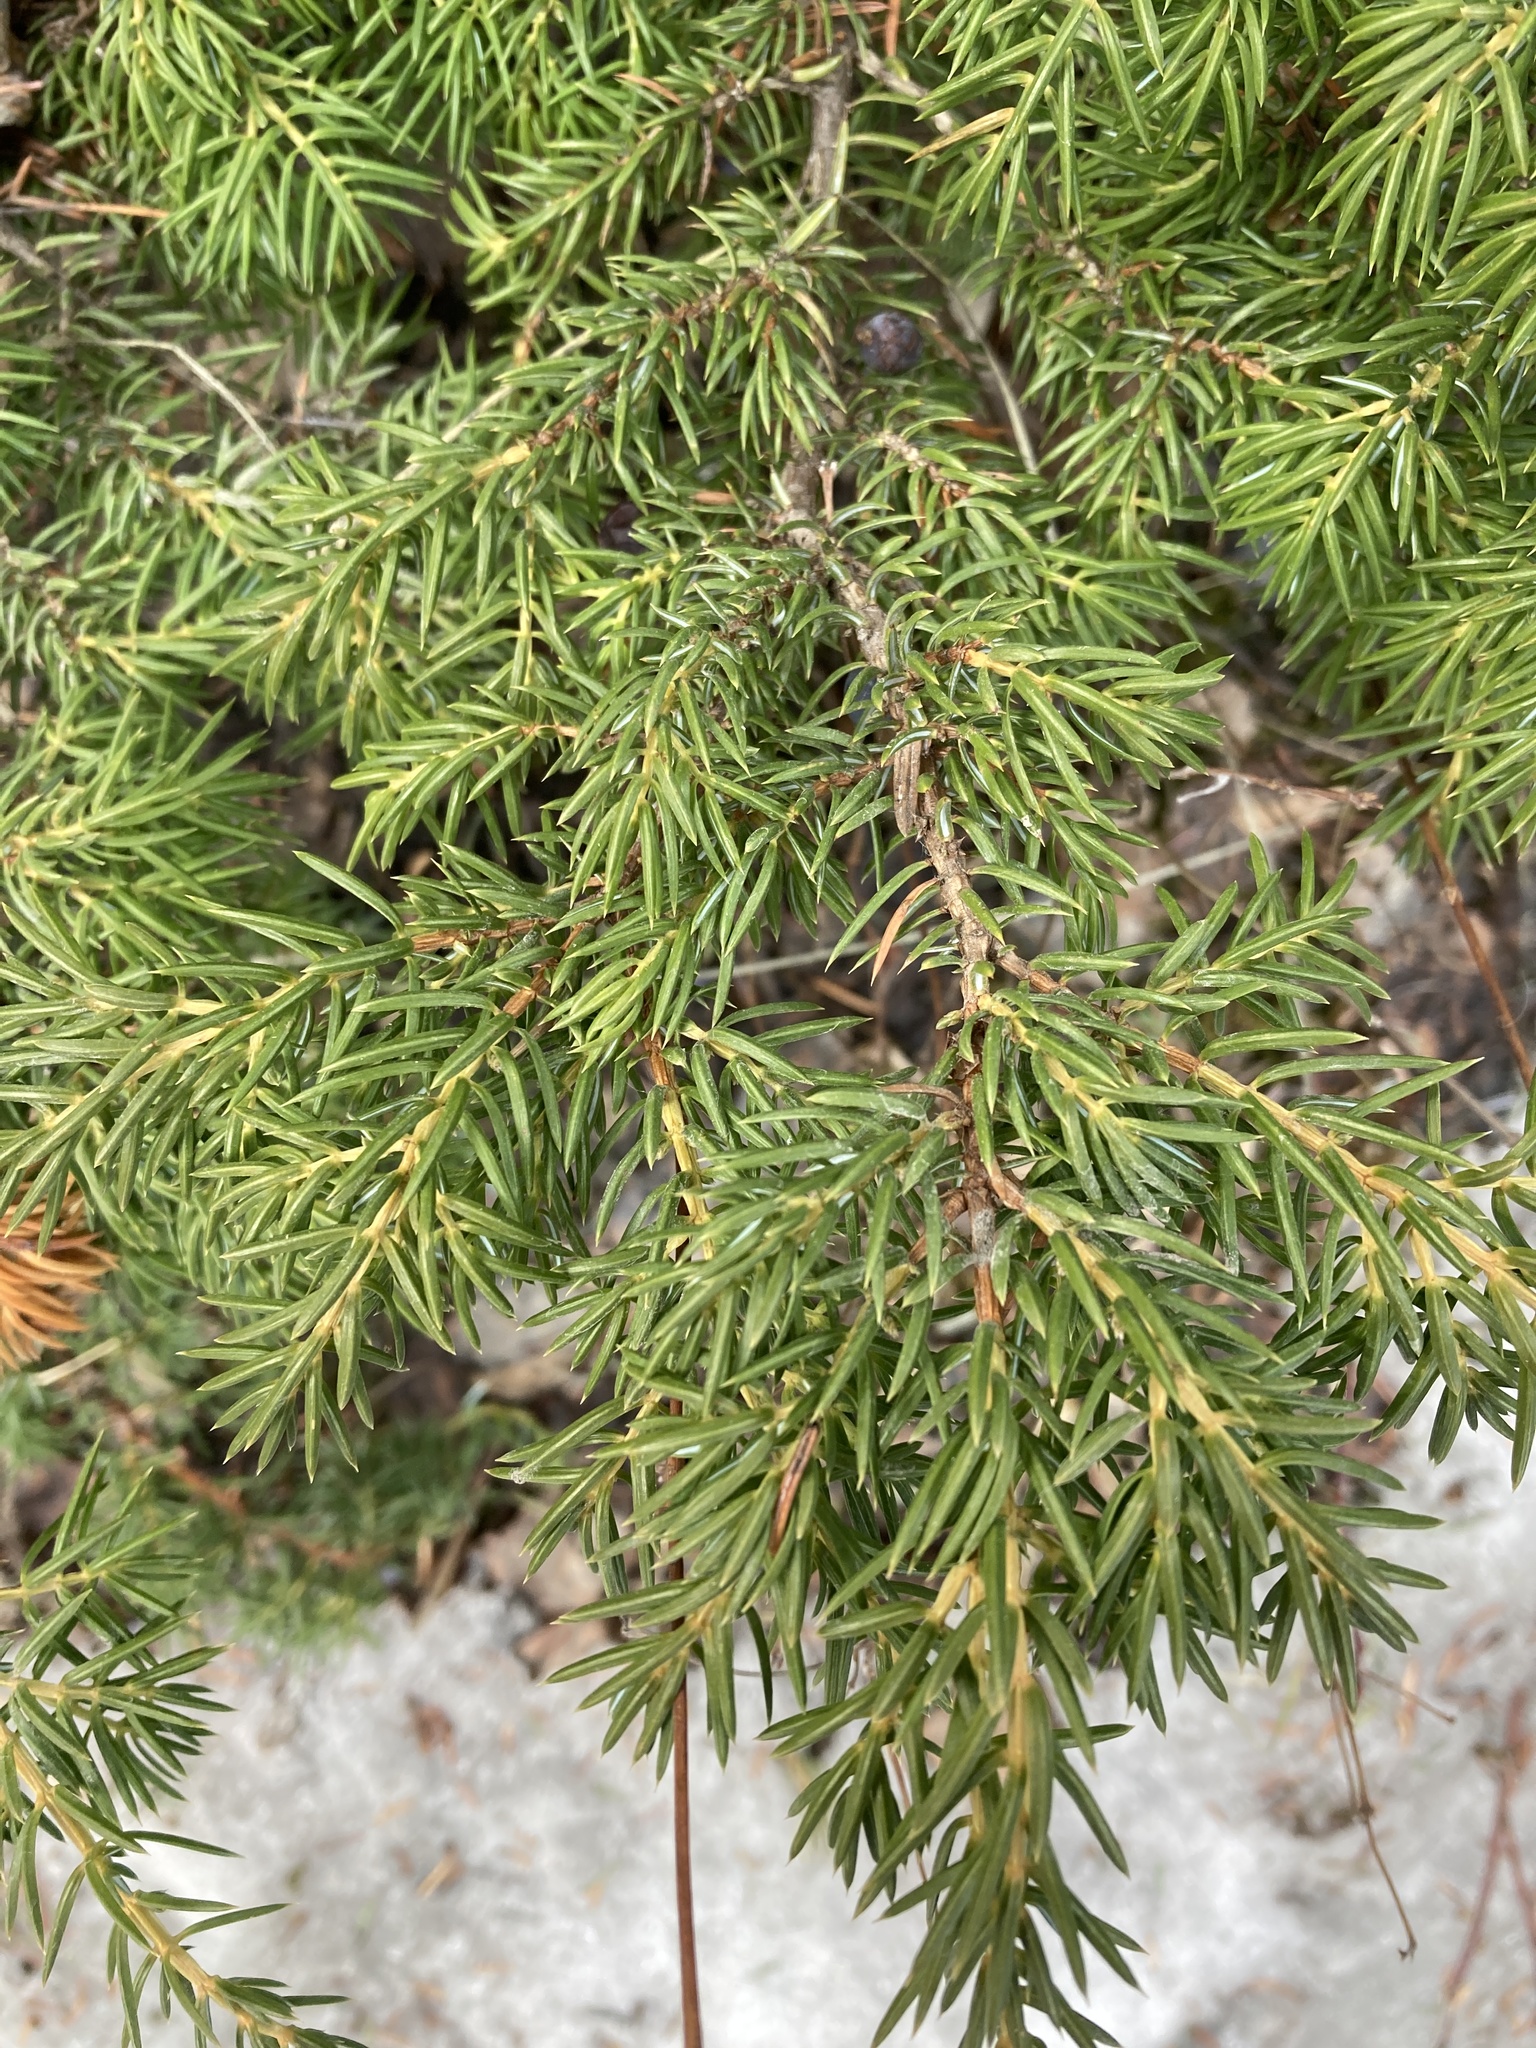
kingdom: Plantae
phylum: Tracheophyta
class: Pinopsida
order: Pinales
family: Cupressaceae
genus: Juniperus
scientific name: Juniperus communis
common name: Common juniper
